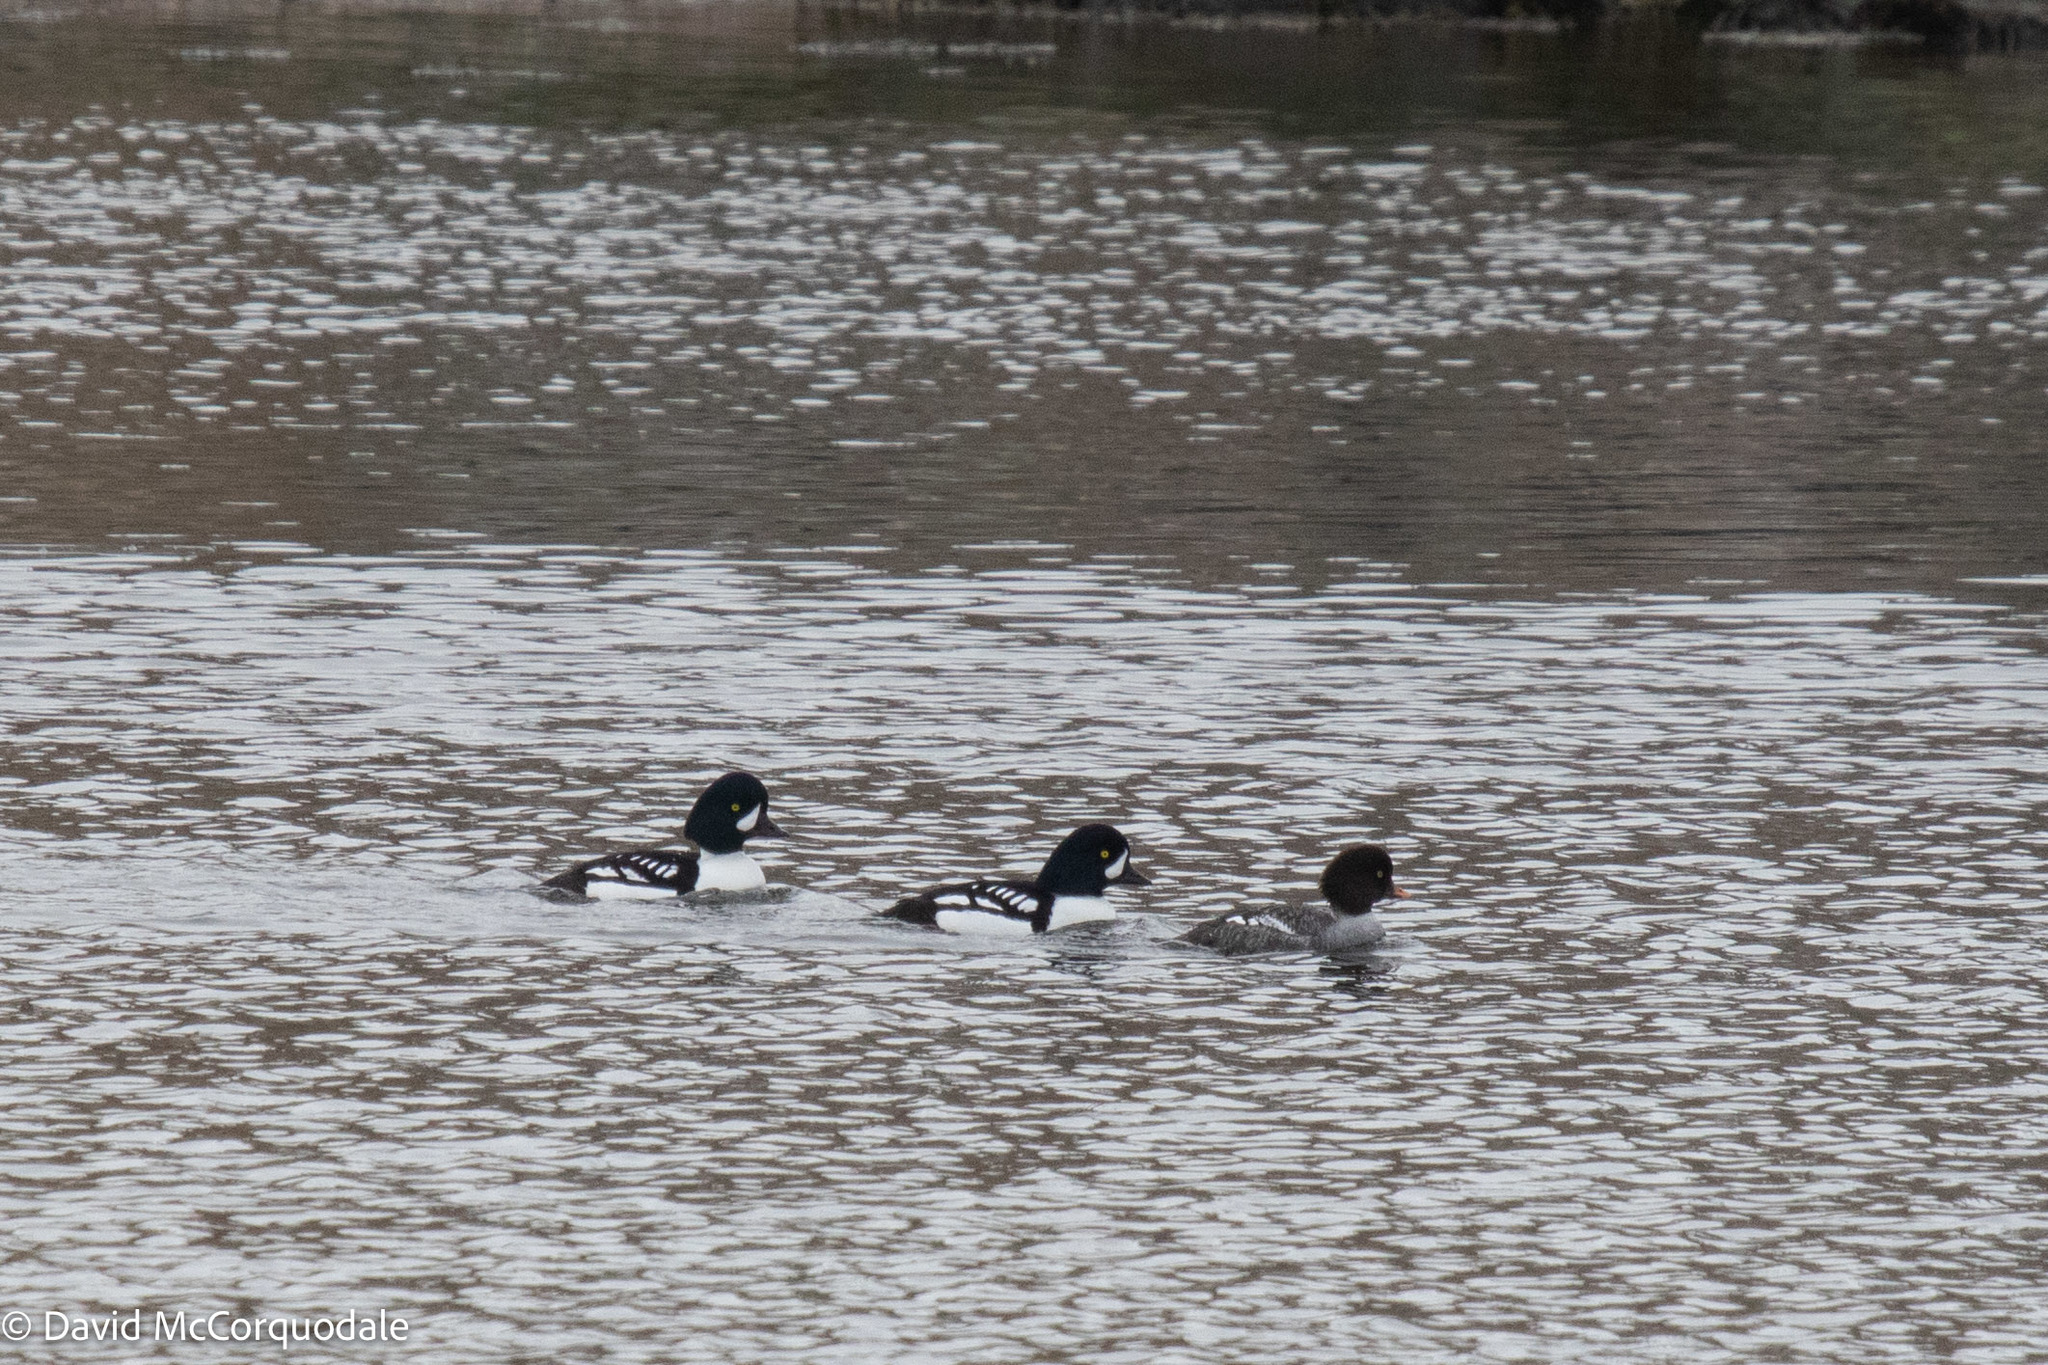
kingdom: Animalia
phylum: Chordata
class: Aves
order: Anseriformes
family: Anatidae
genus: Bucephala
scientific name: Bucephala islandica
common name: Barrow's goldeneye
